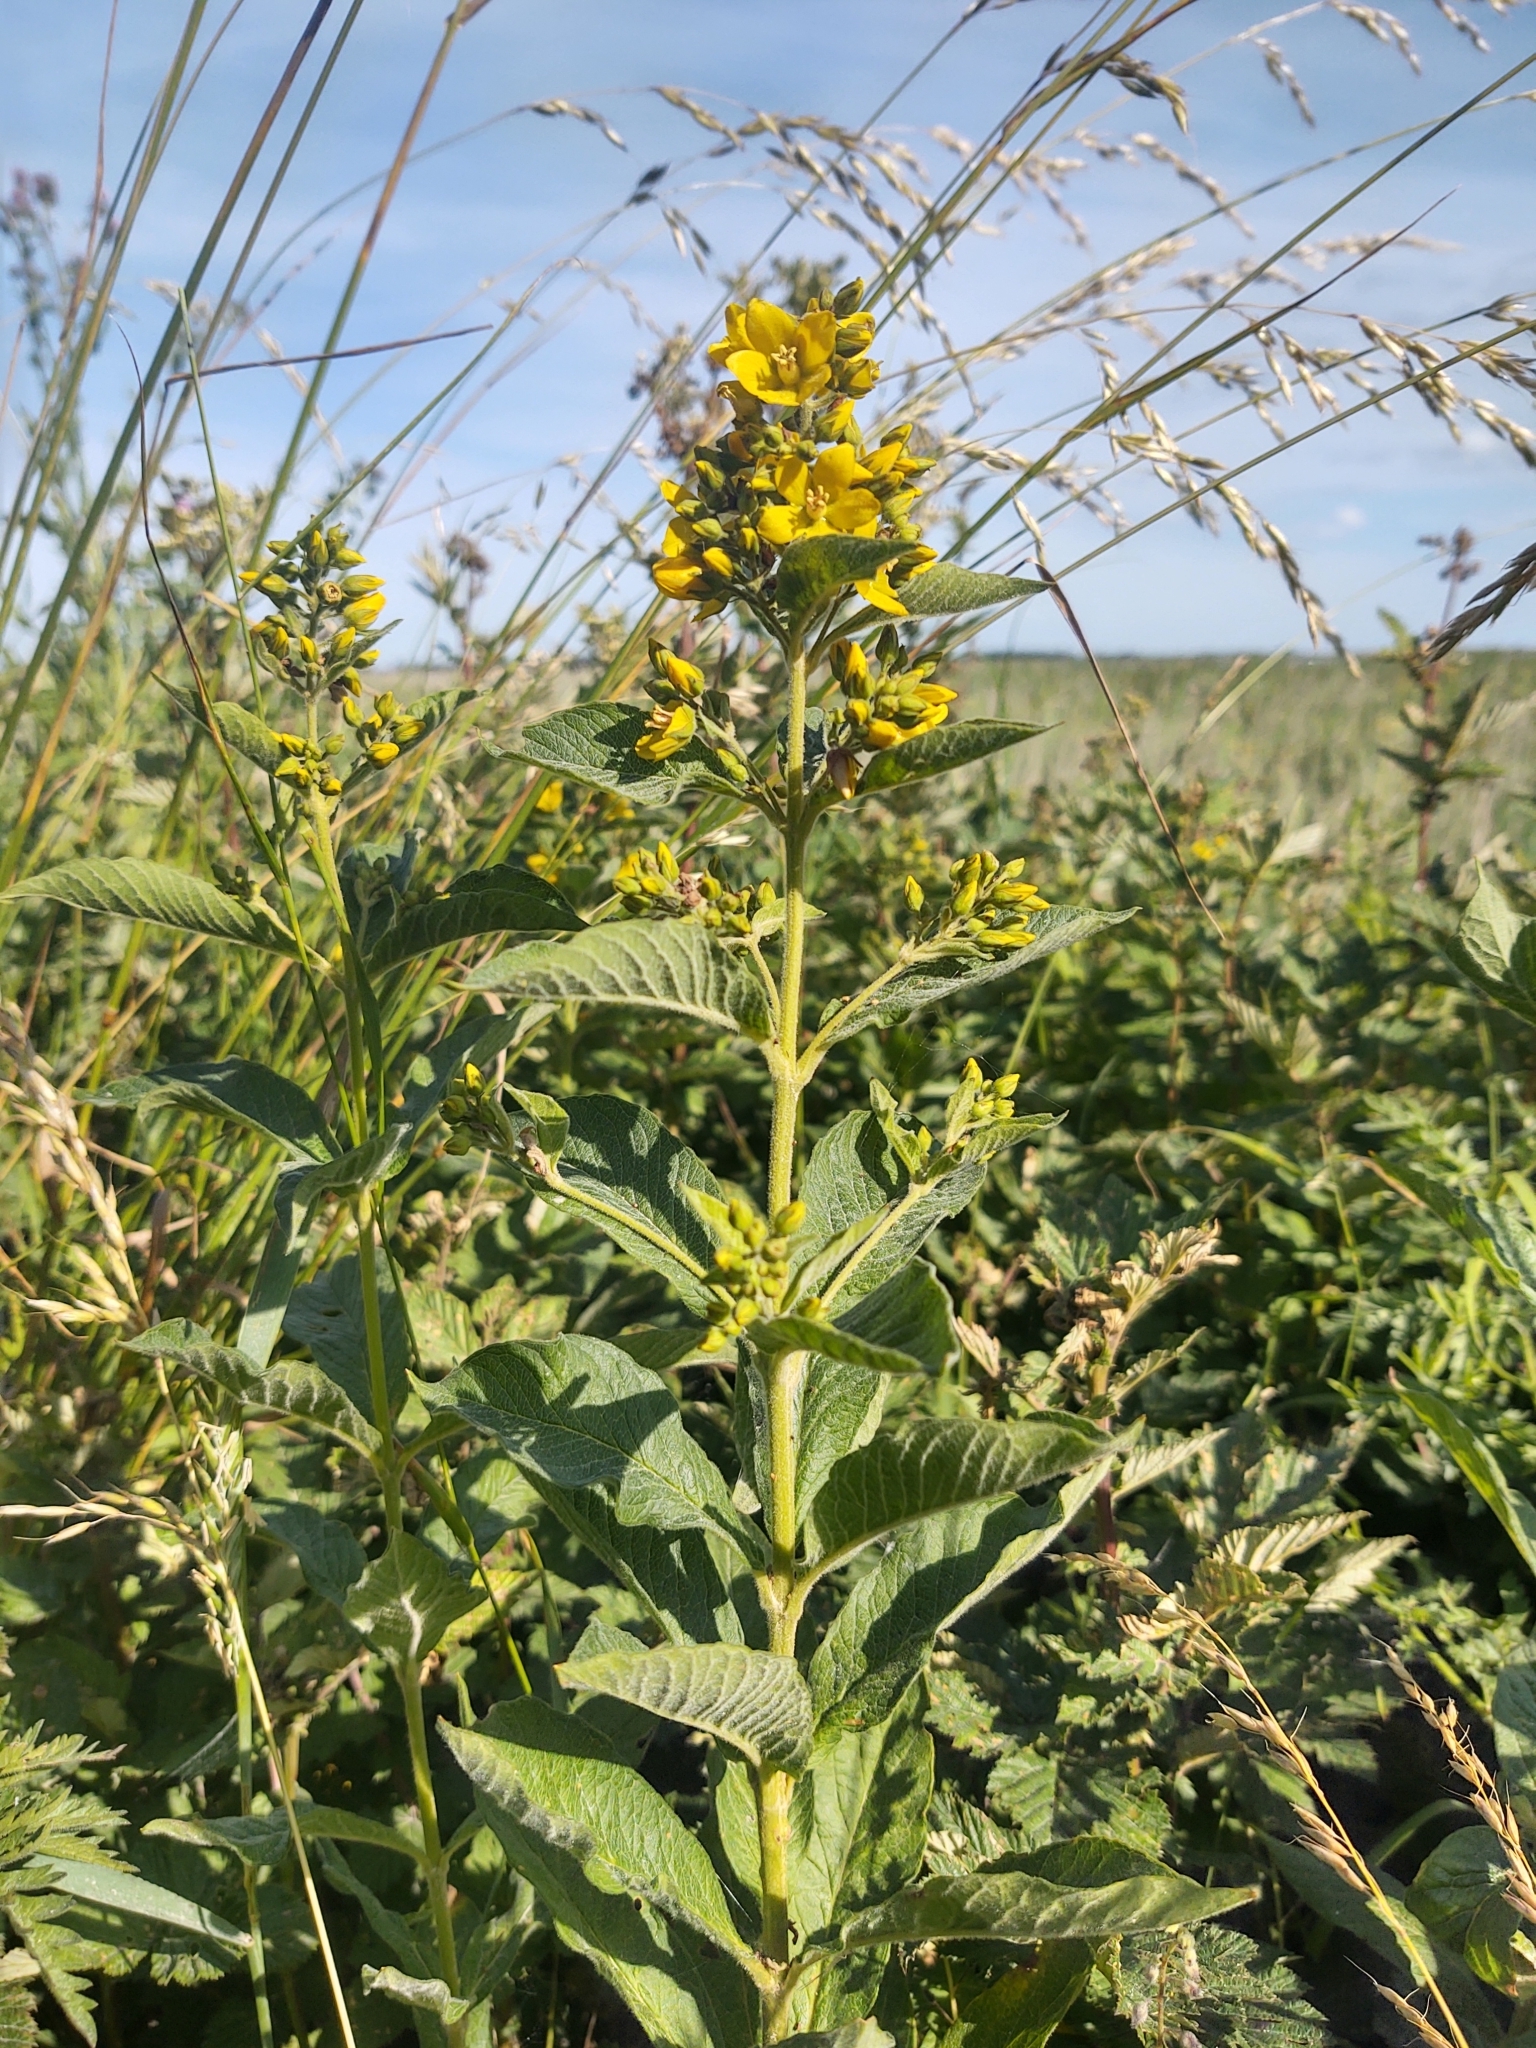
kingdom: Plantae
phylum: Tracheophyta
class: Magnoliopsida
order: Ericales
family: Primulaceae
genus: Lysimachia
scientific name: Lysimachia vulgaris
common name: Yellow loosestrife
